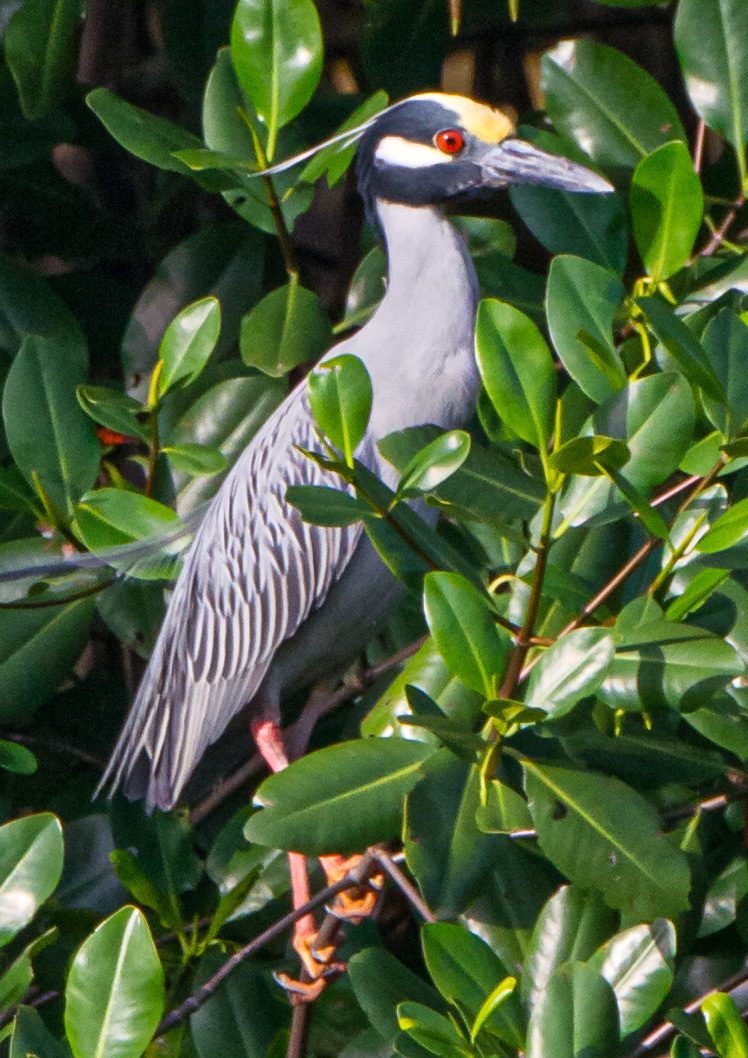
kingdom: Animalia
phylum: Chordata
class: Aves
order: Pelecaniformes
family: Ardeidae
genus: Nyctanassa
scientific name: Nyctanassa violacea
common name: Yellow-crowned night heron
